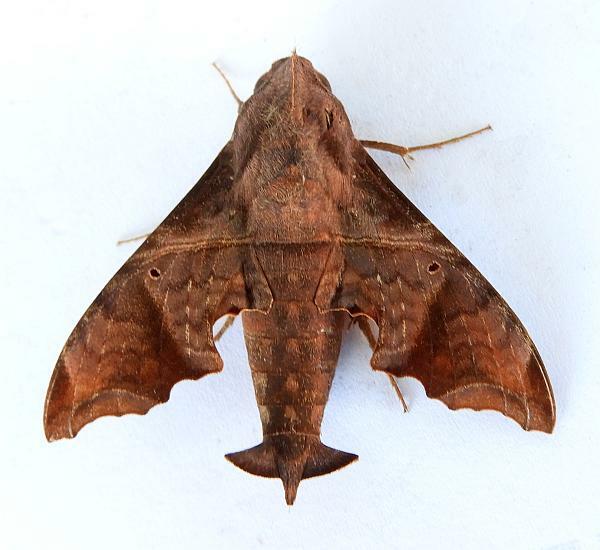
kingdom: Animalia
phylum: Arthropoda
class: Insecta
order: Lepidoptera
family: Sphingidae
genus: Enyo
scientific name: Enyo lugubris
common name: Mournful sphinx
